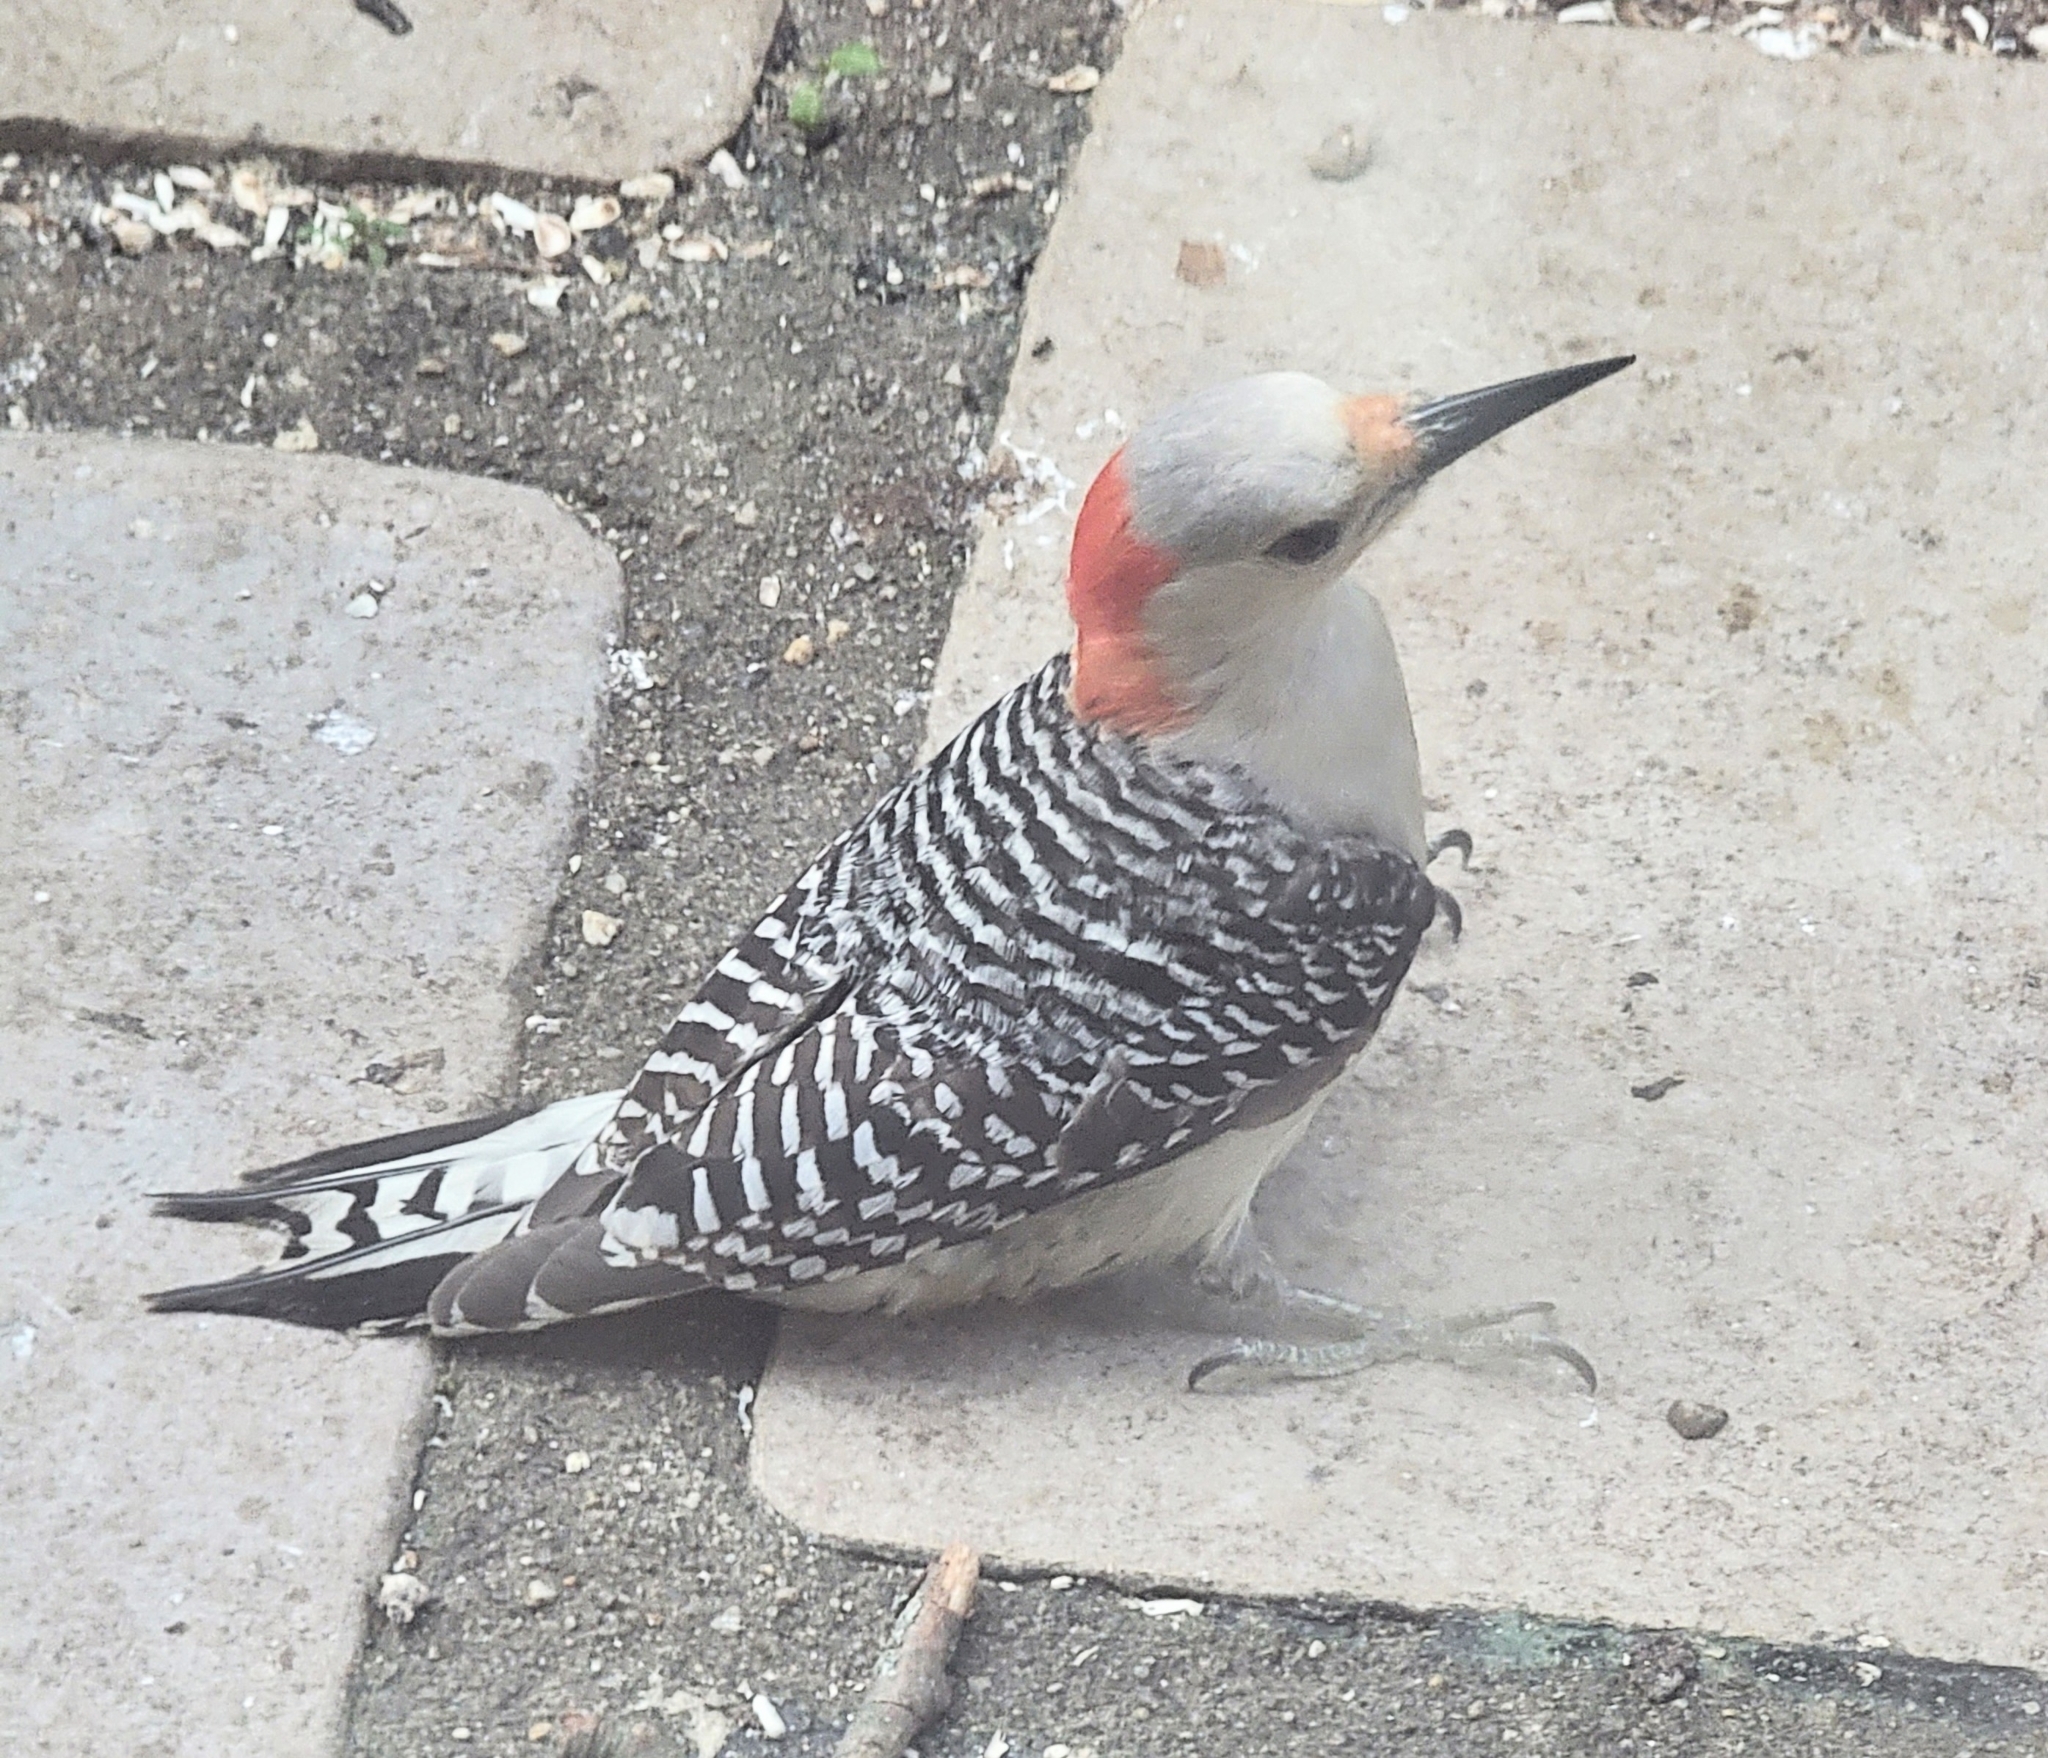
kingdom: Animalia
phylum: Chordata
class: Aves
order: Piciformes
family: Picidae
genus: Melanerpes
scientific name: Melanerpes carolinus
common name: Red-bellied woodpecker
